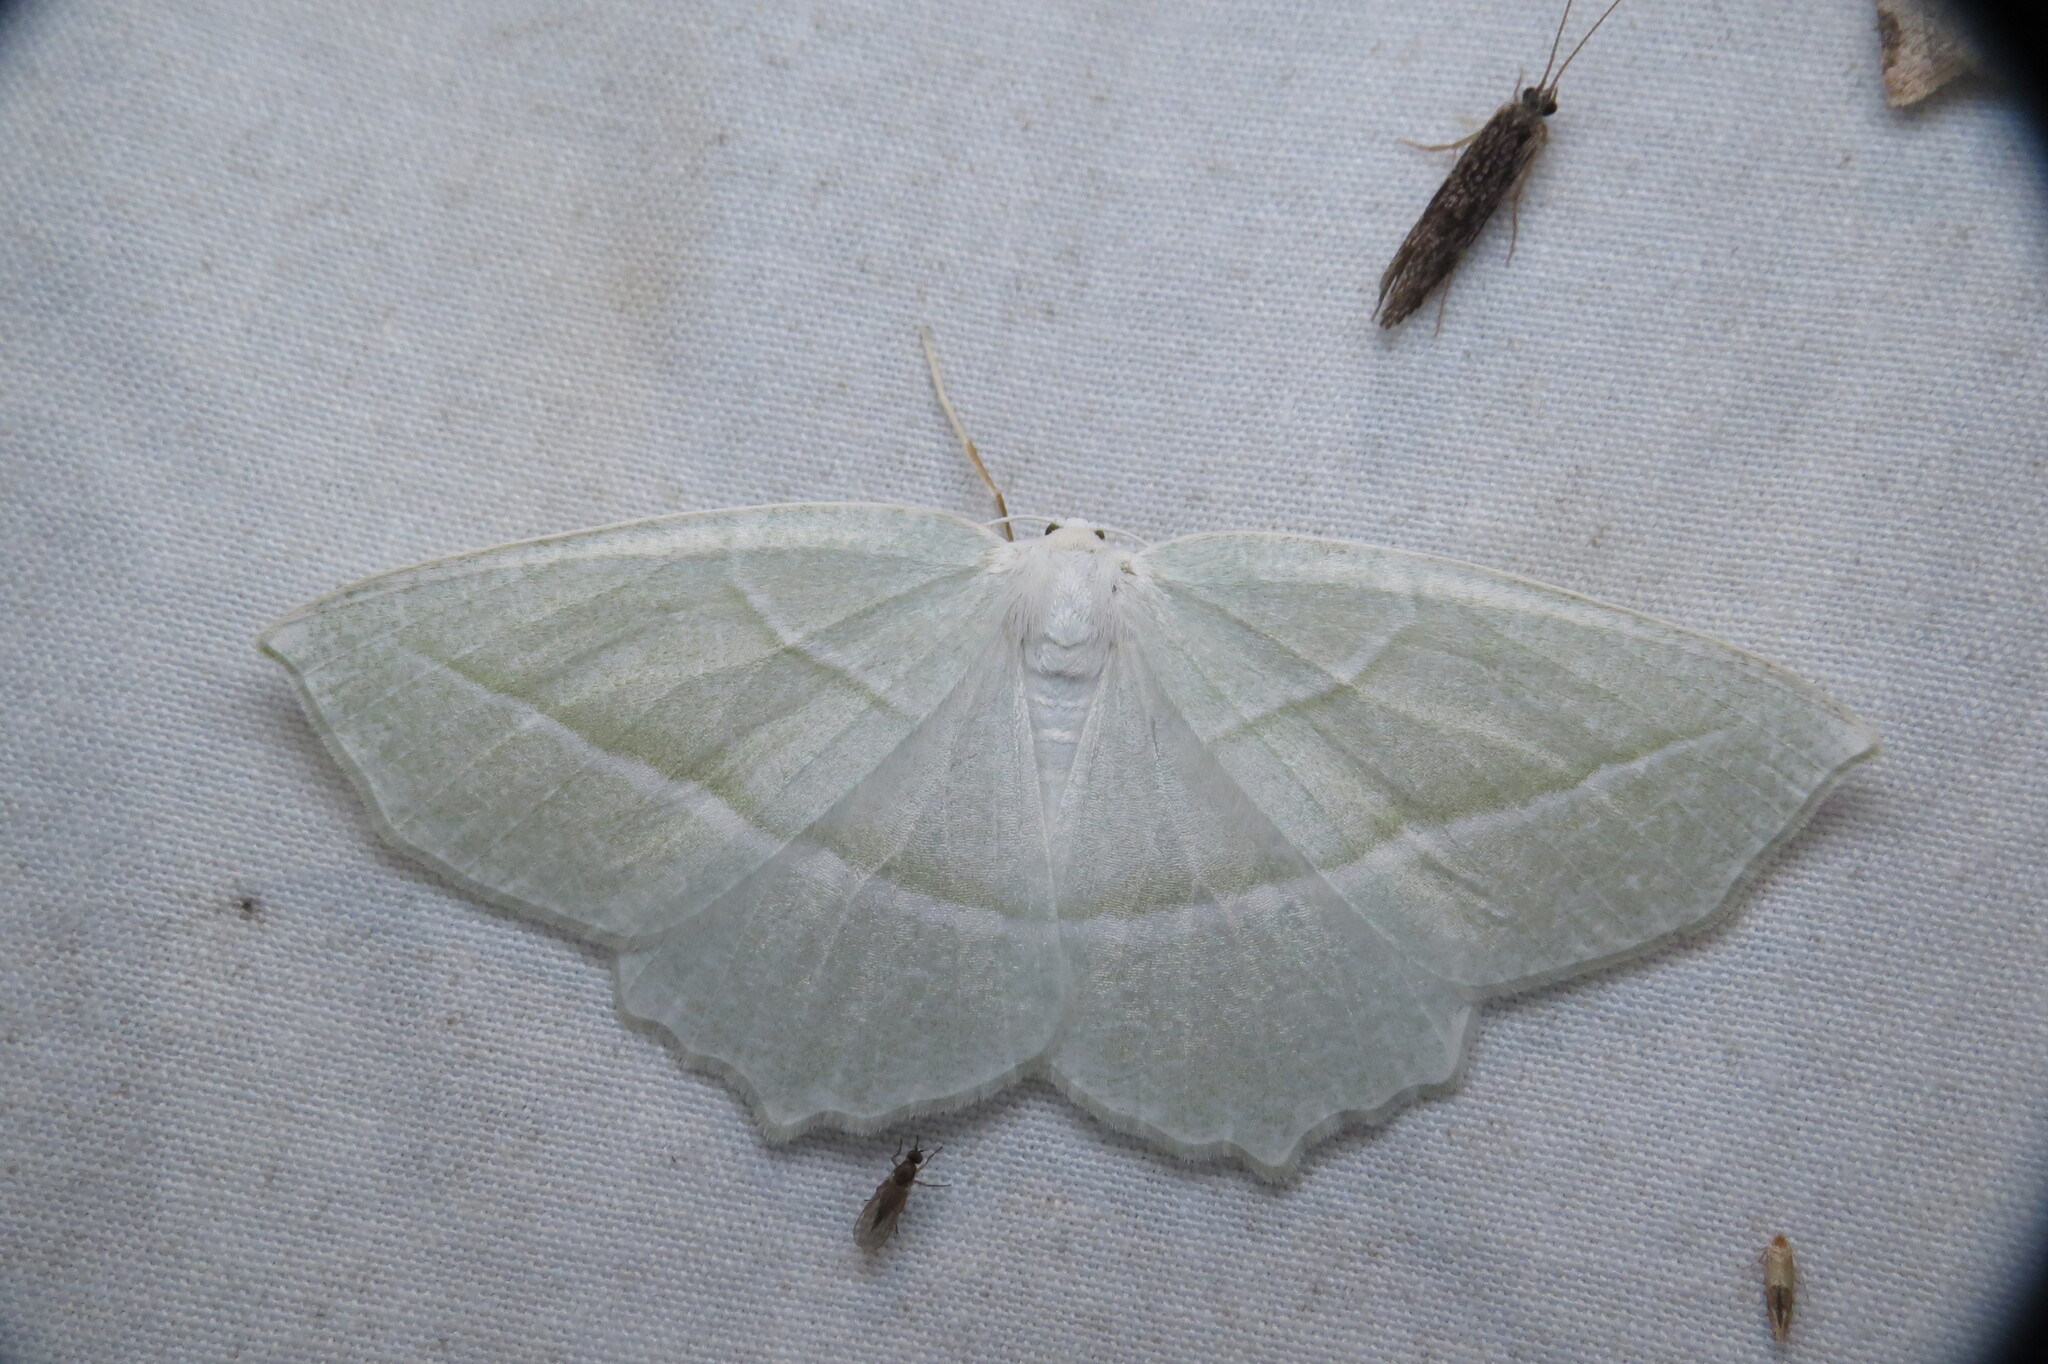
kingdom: Animalia
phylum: Arthropoda
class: Insecta
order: Lepidoptera
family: Geometridae
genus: Campaea
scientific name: Campaea perlata
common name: Fringed looper
